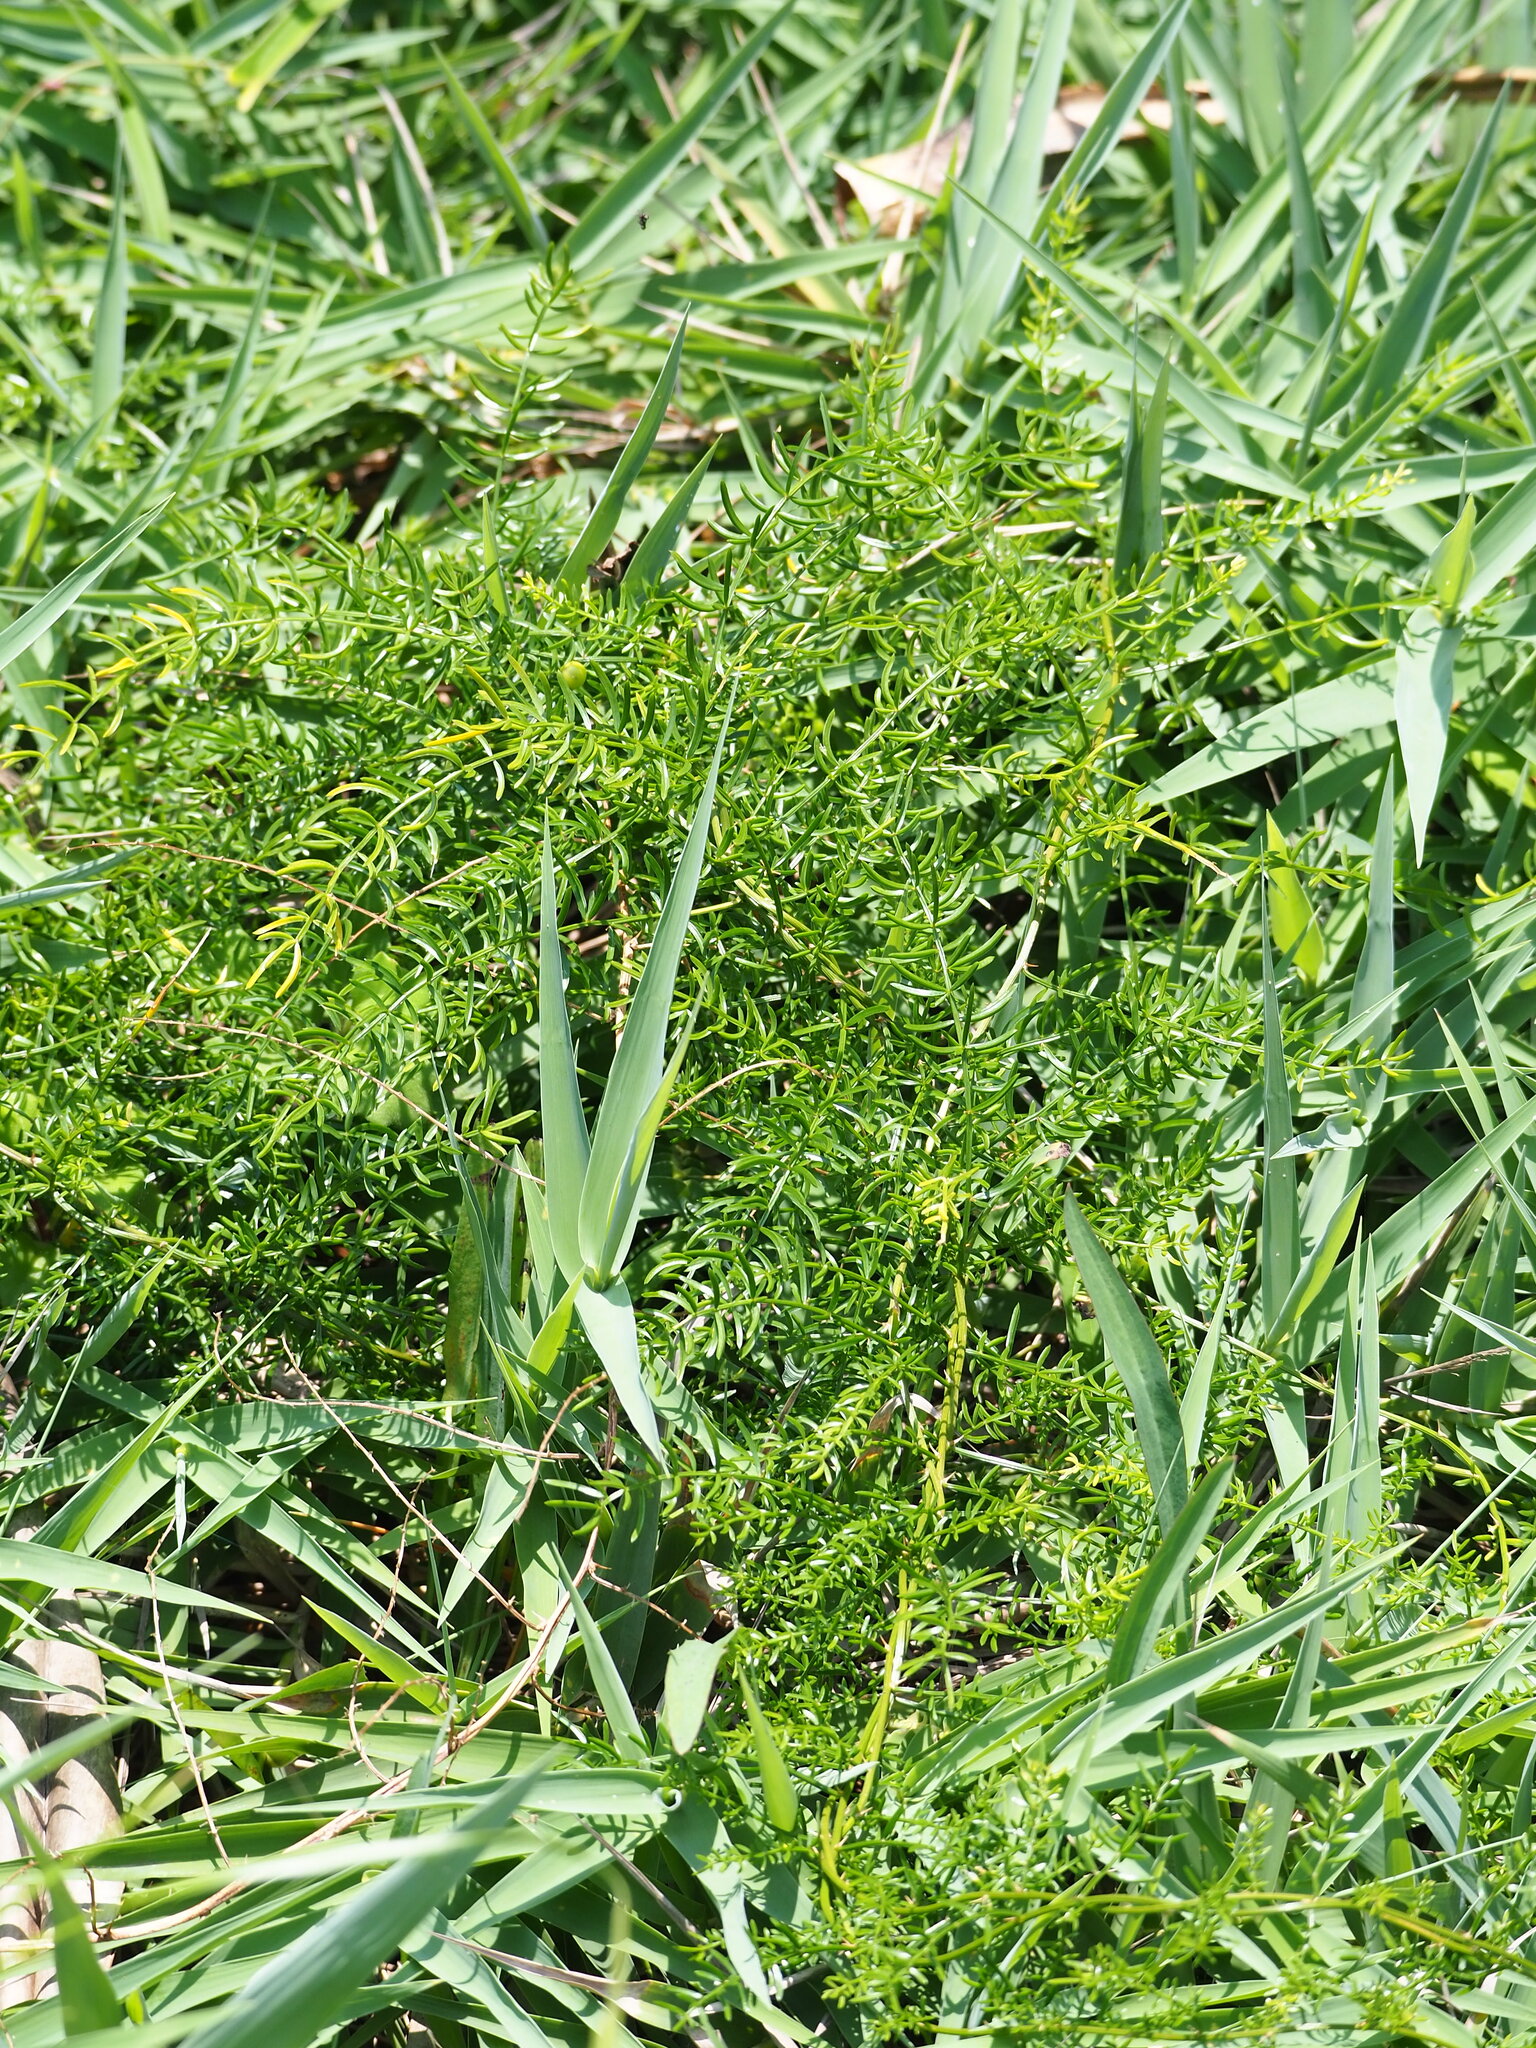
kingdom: Plantae
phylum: Tracheophyta
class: Liliopsida
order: Asparagales
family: Asparagaceae
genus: Asparagus
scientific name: Asparagus cochinchinensis
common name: Chinese asparagus
